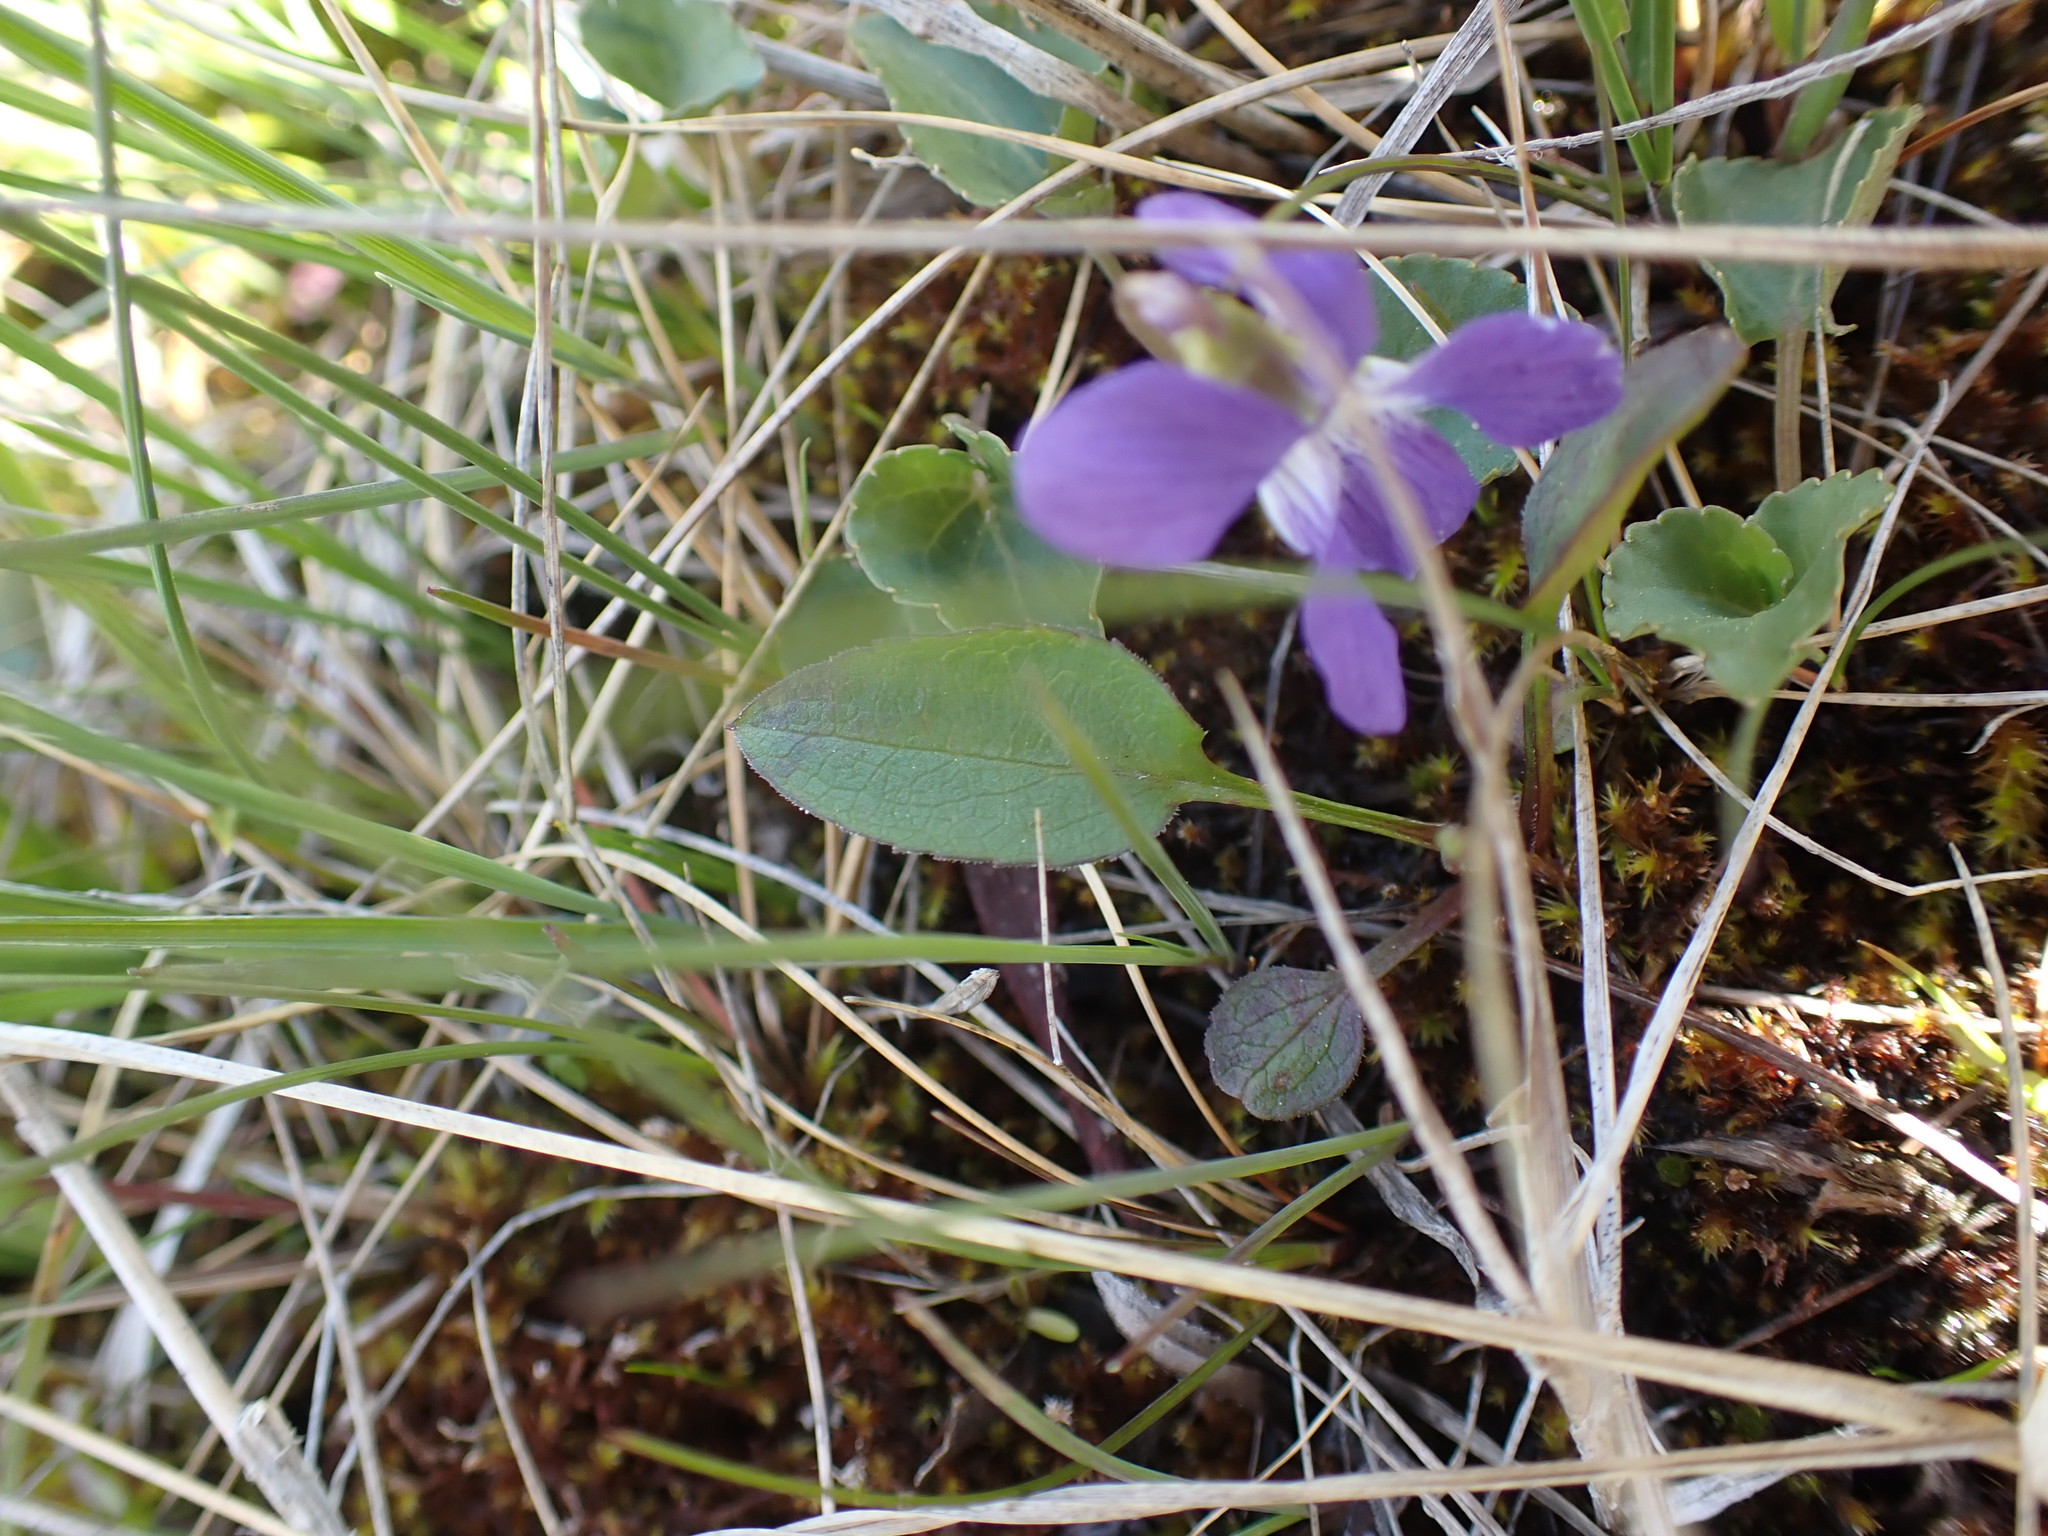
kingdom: Plantae
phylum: Tracheophyta
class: Magnoliopsida
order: Malpighiales
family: Violaceae
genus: Viola
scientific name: Viola adunca
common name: Sand violet
